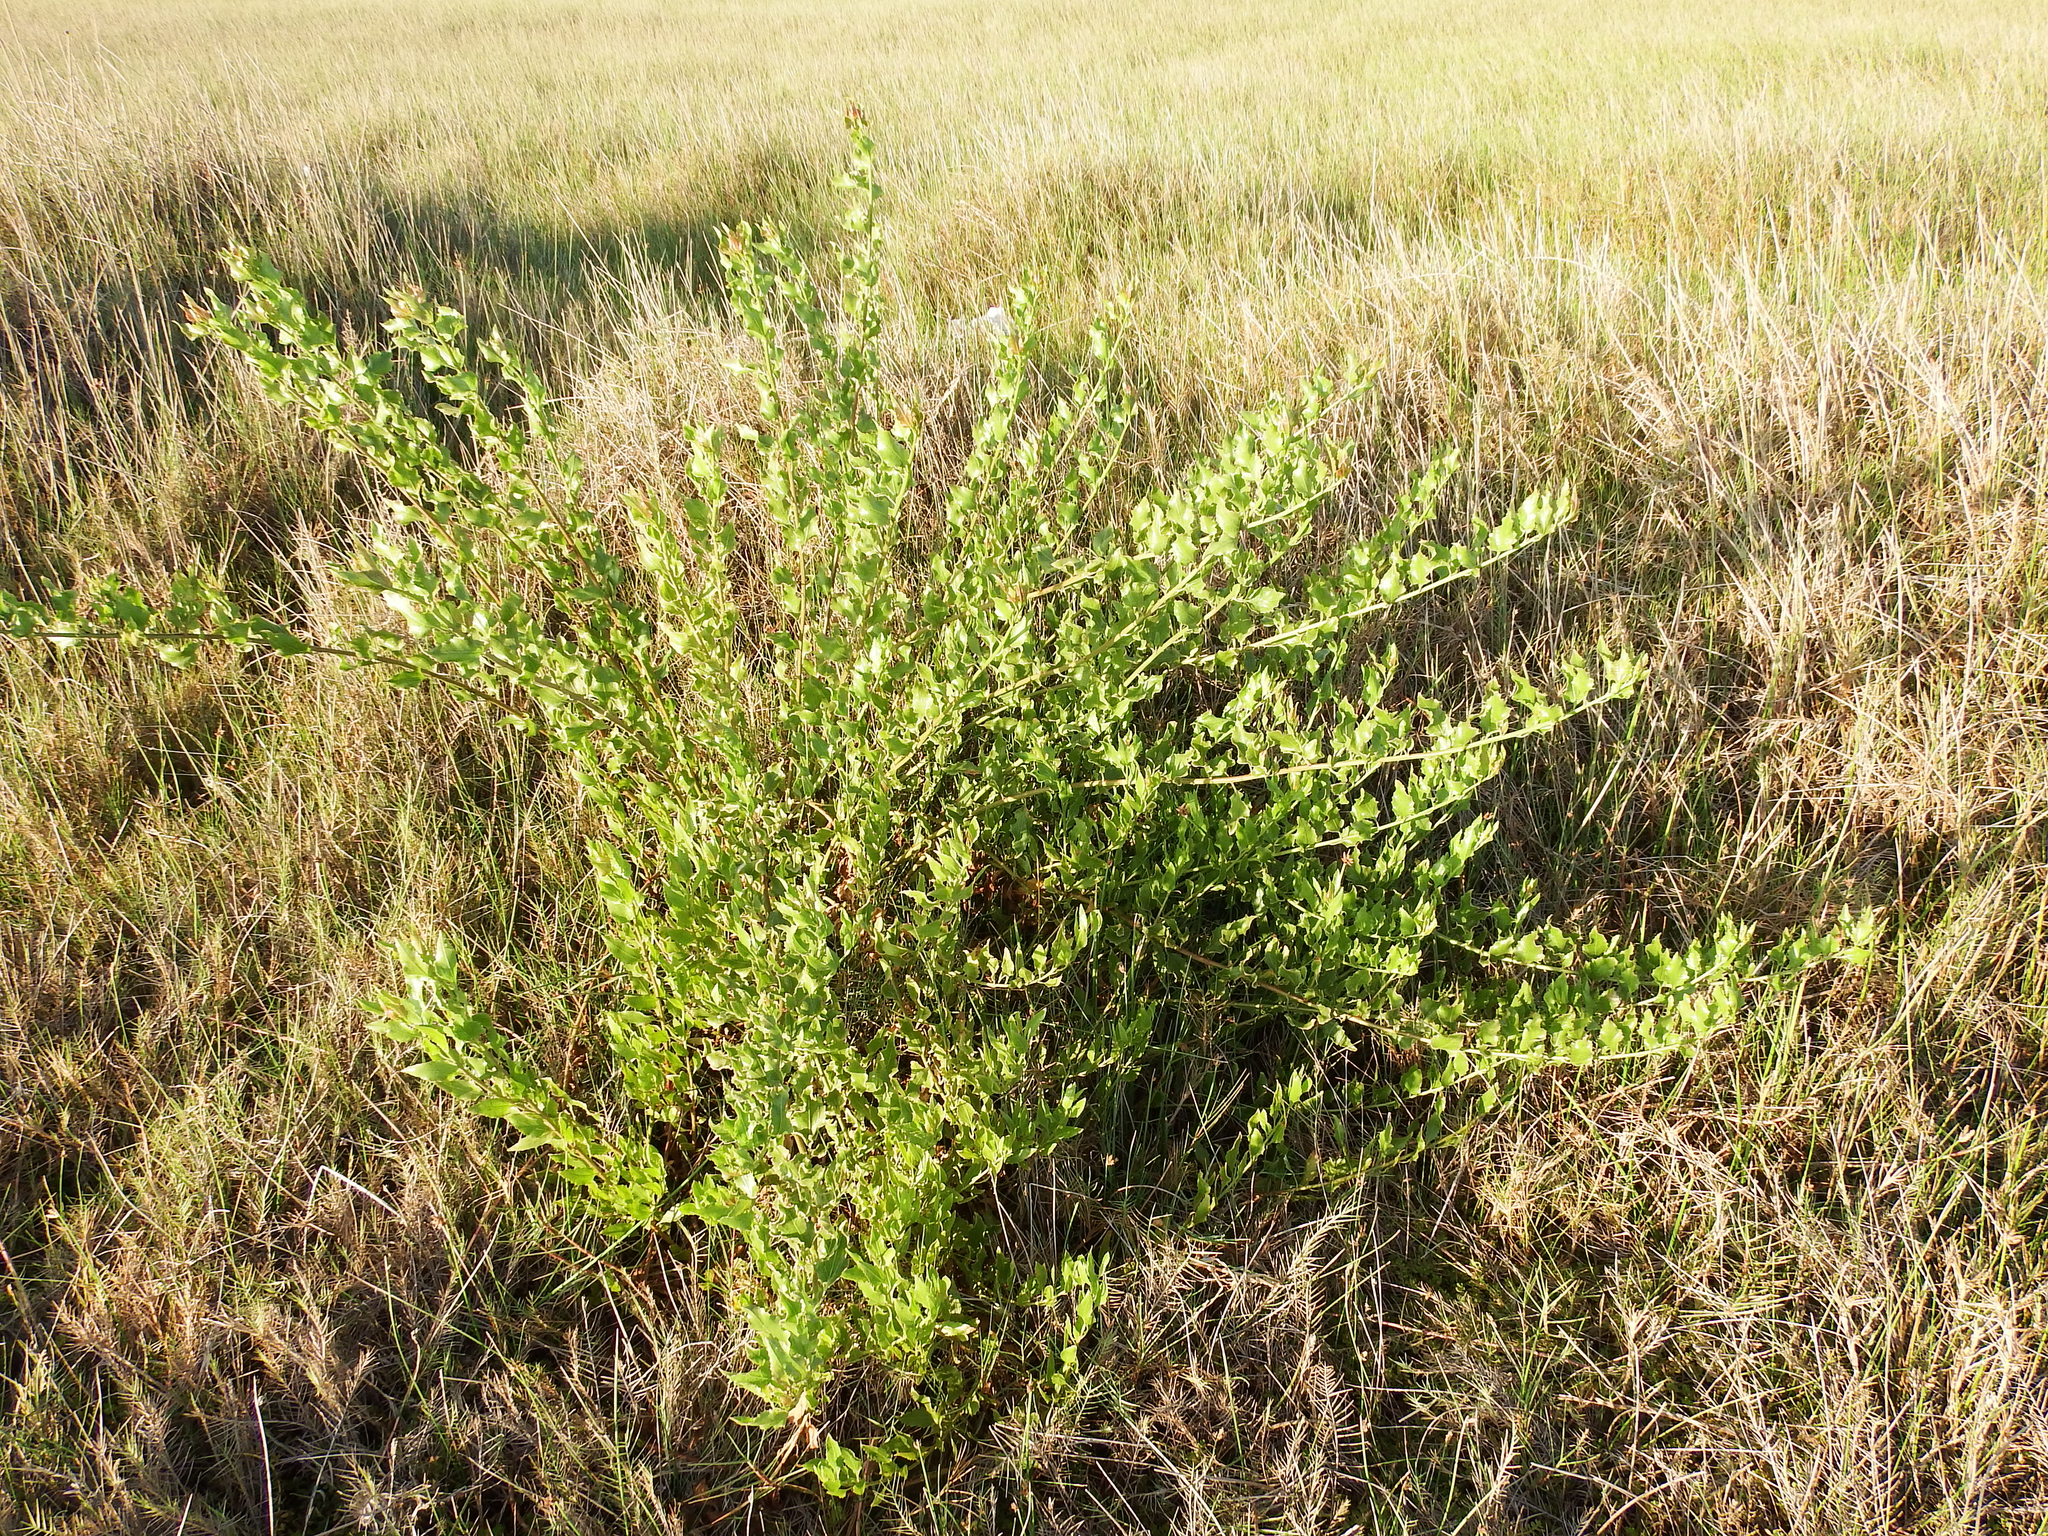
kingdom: Plantae
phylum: Tracheophyta
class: Magnoliopsida
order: Asterales
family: Asteraceae
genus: Baccharis
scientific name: Baccharis scandens
